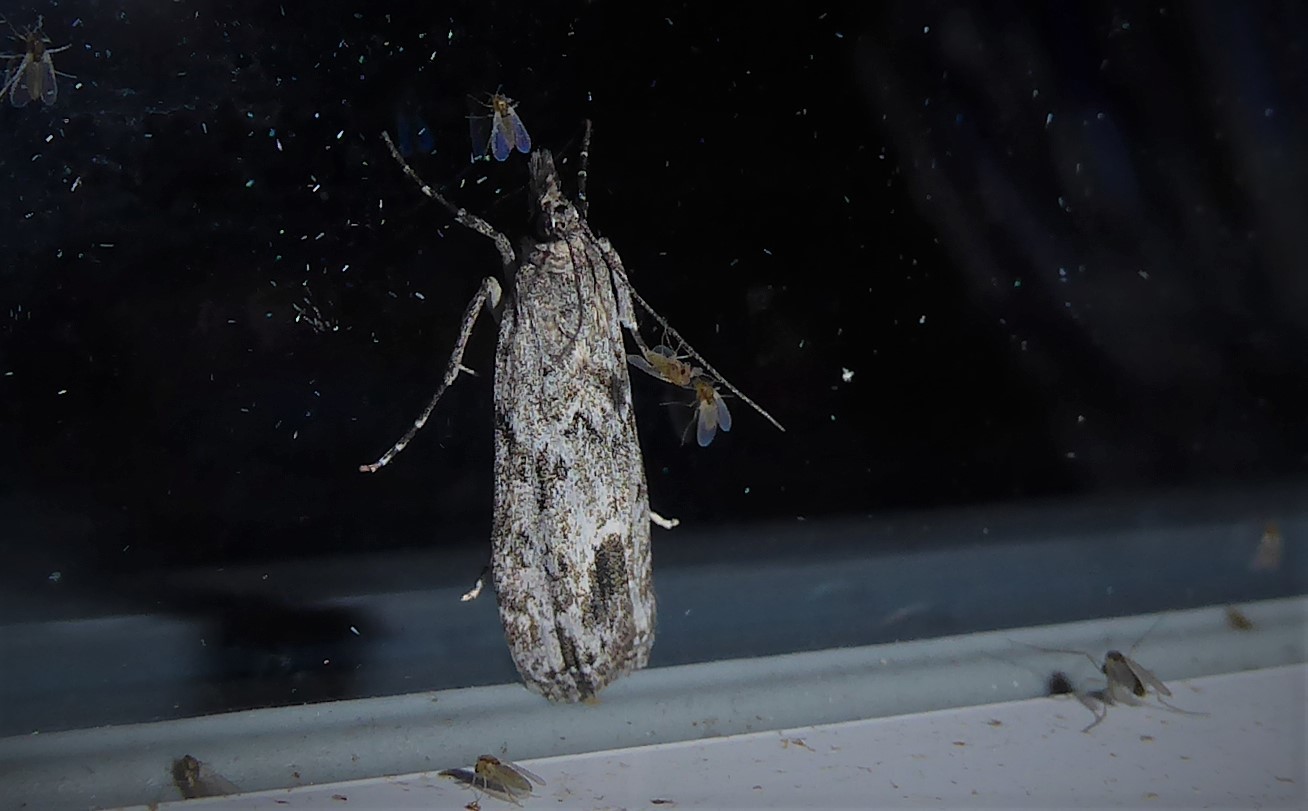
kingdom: Animalia
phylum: Arthropoda
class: Insecta
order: Lepidoptera
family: Crambidae
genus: Eudonia
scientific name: Eudonia rakaiensis
